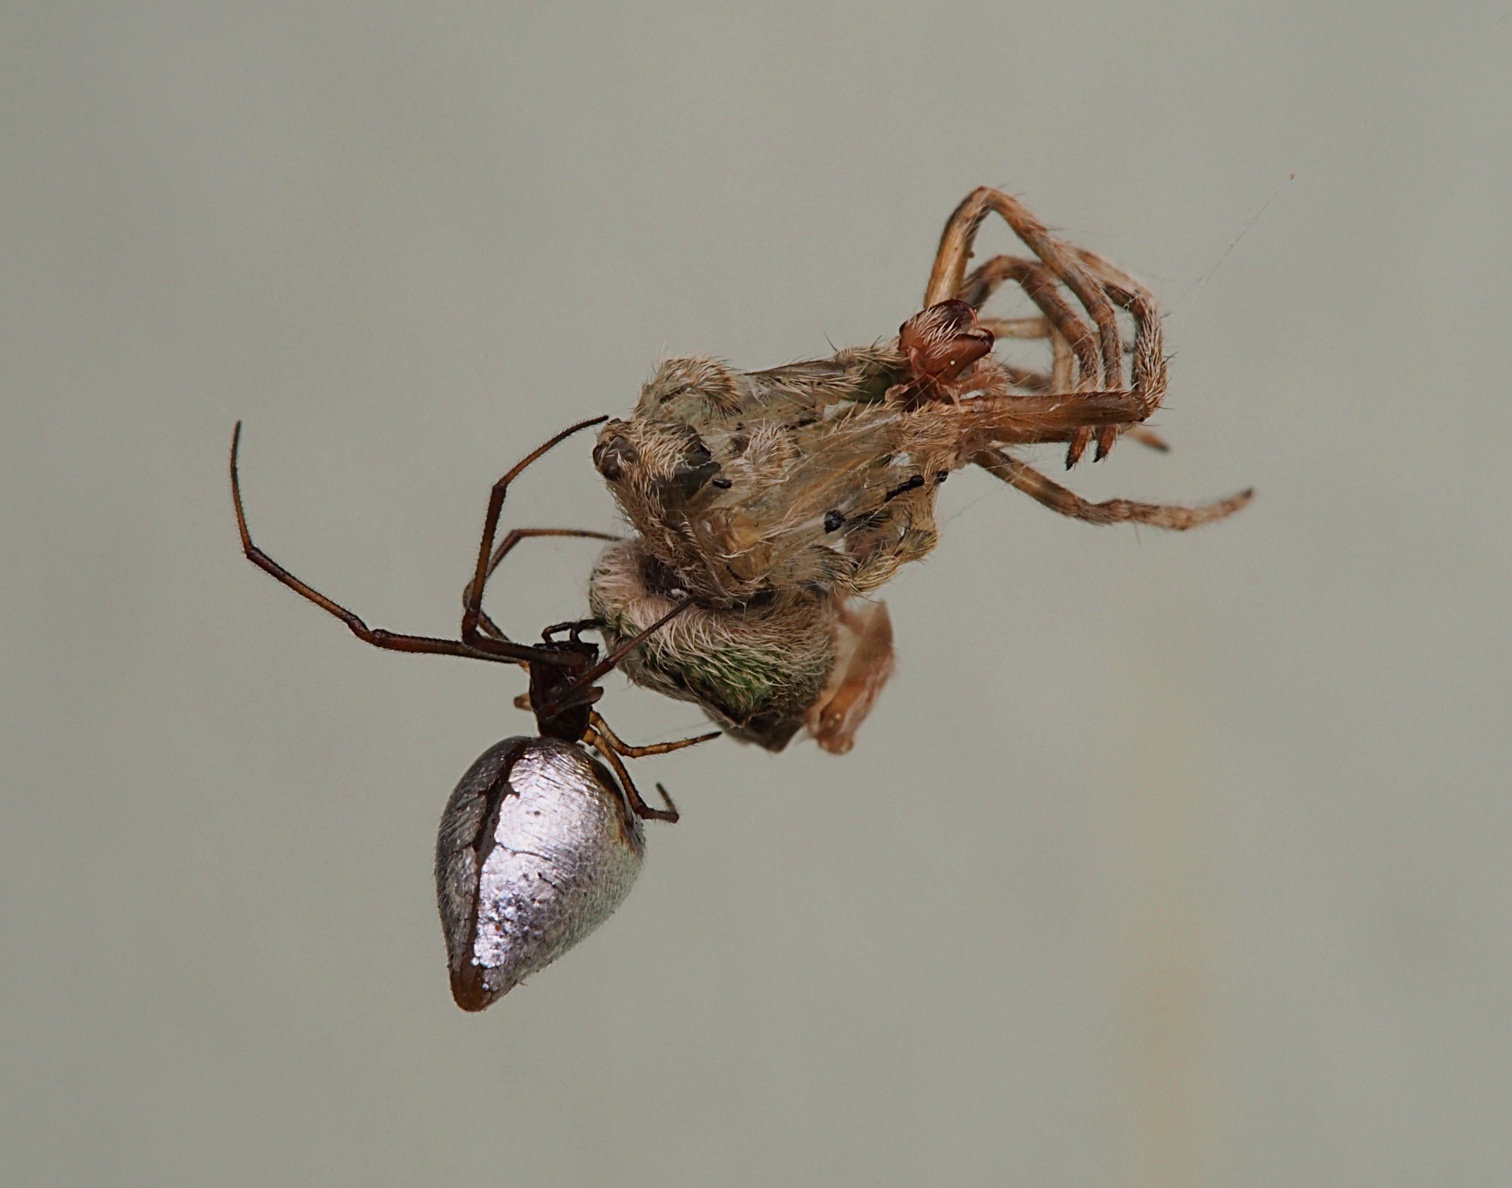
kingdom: Animalia
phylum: Arthropoda
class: Arachnida
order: Araneae
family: Theridiidae
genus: Argyrodes
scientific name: Argyrodes antipodianus
